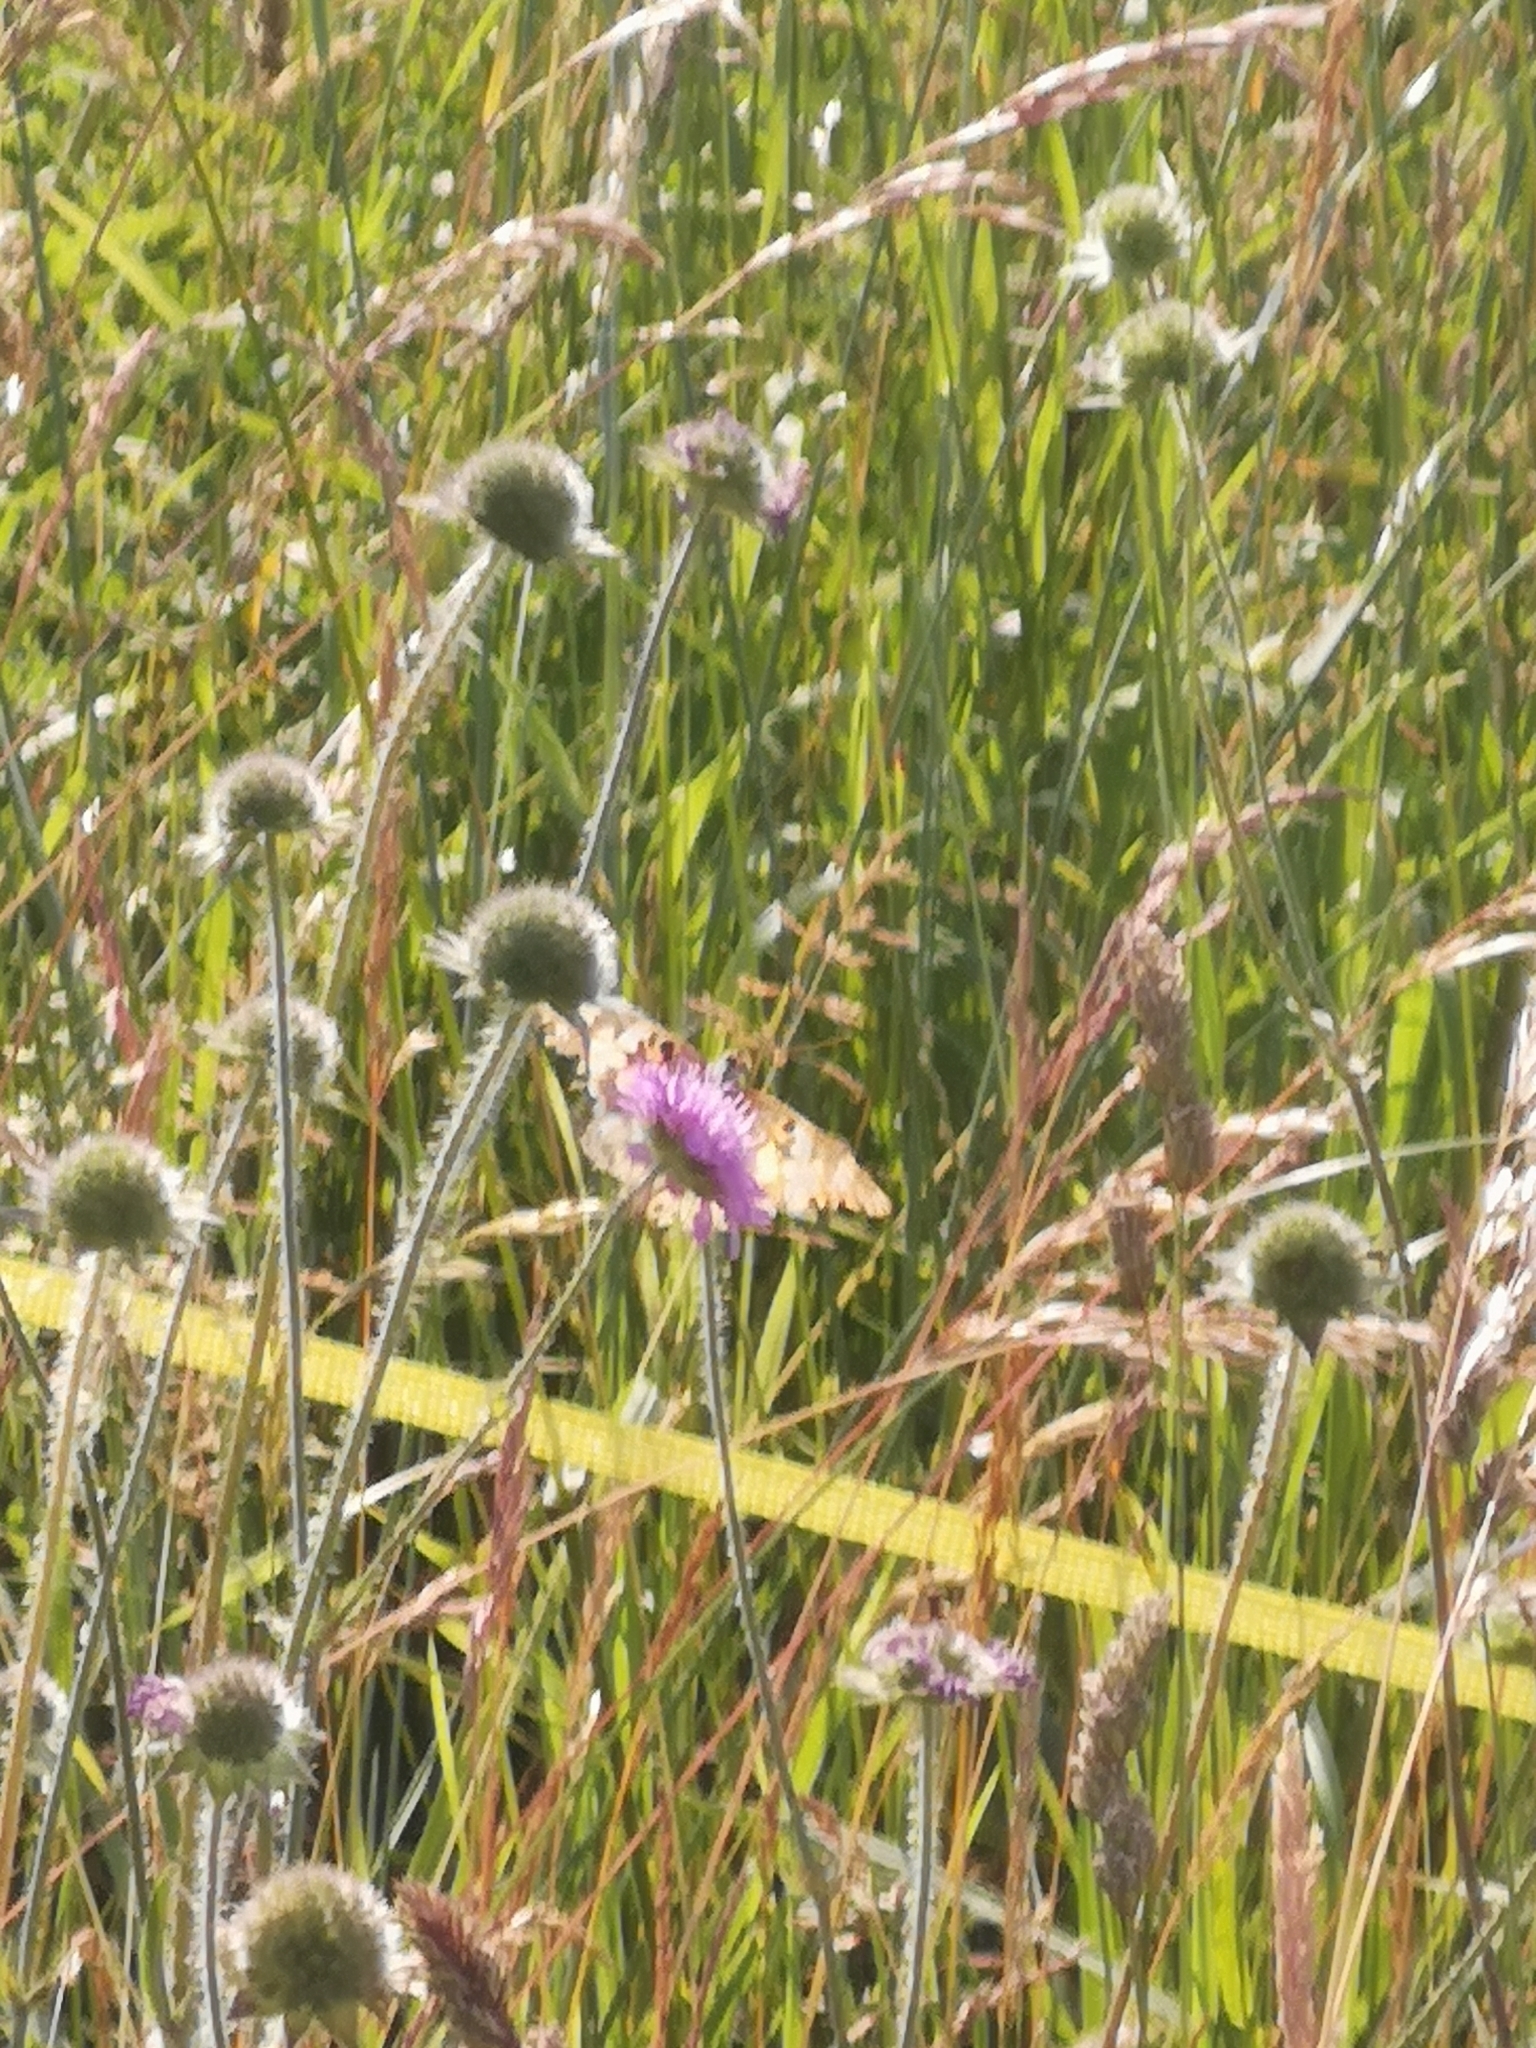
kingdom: Animalia
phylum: Arthropoda
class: Insecta
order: Lepidoptera
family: Nymphalidae
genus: Vanessa
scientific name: Vanessa cardui
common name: Painted lady
